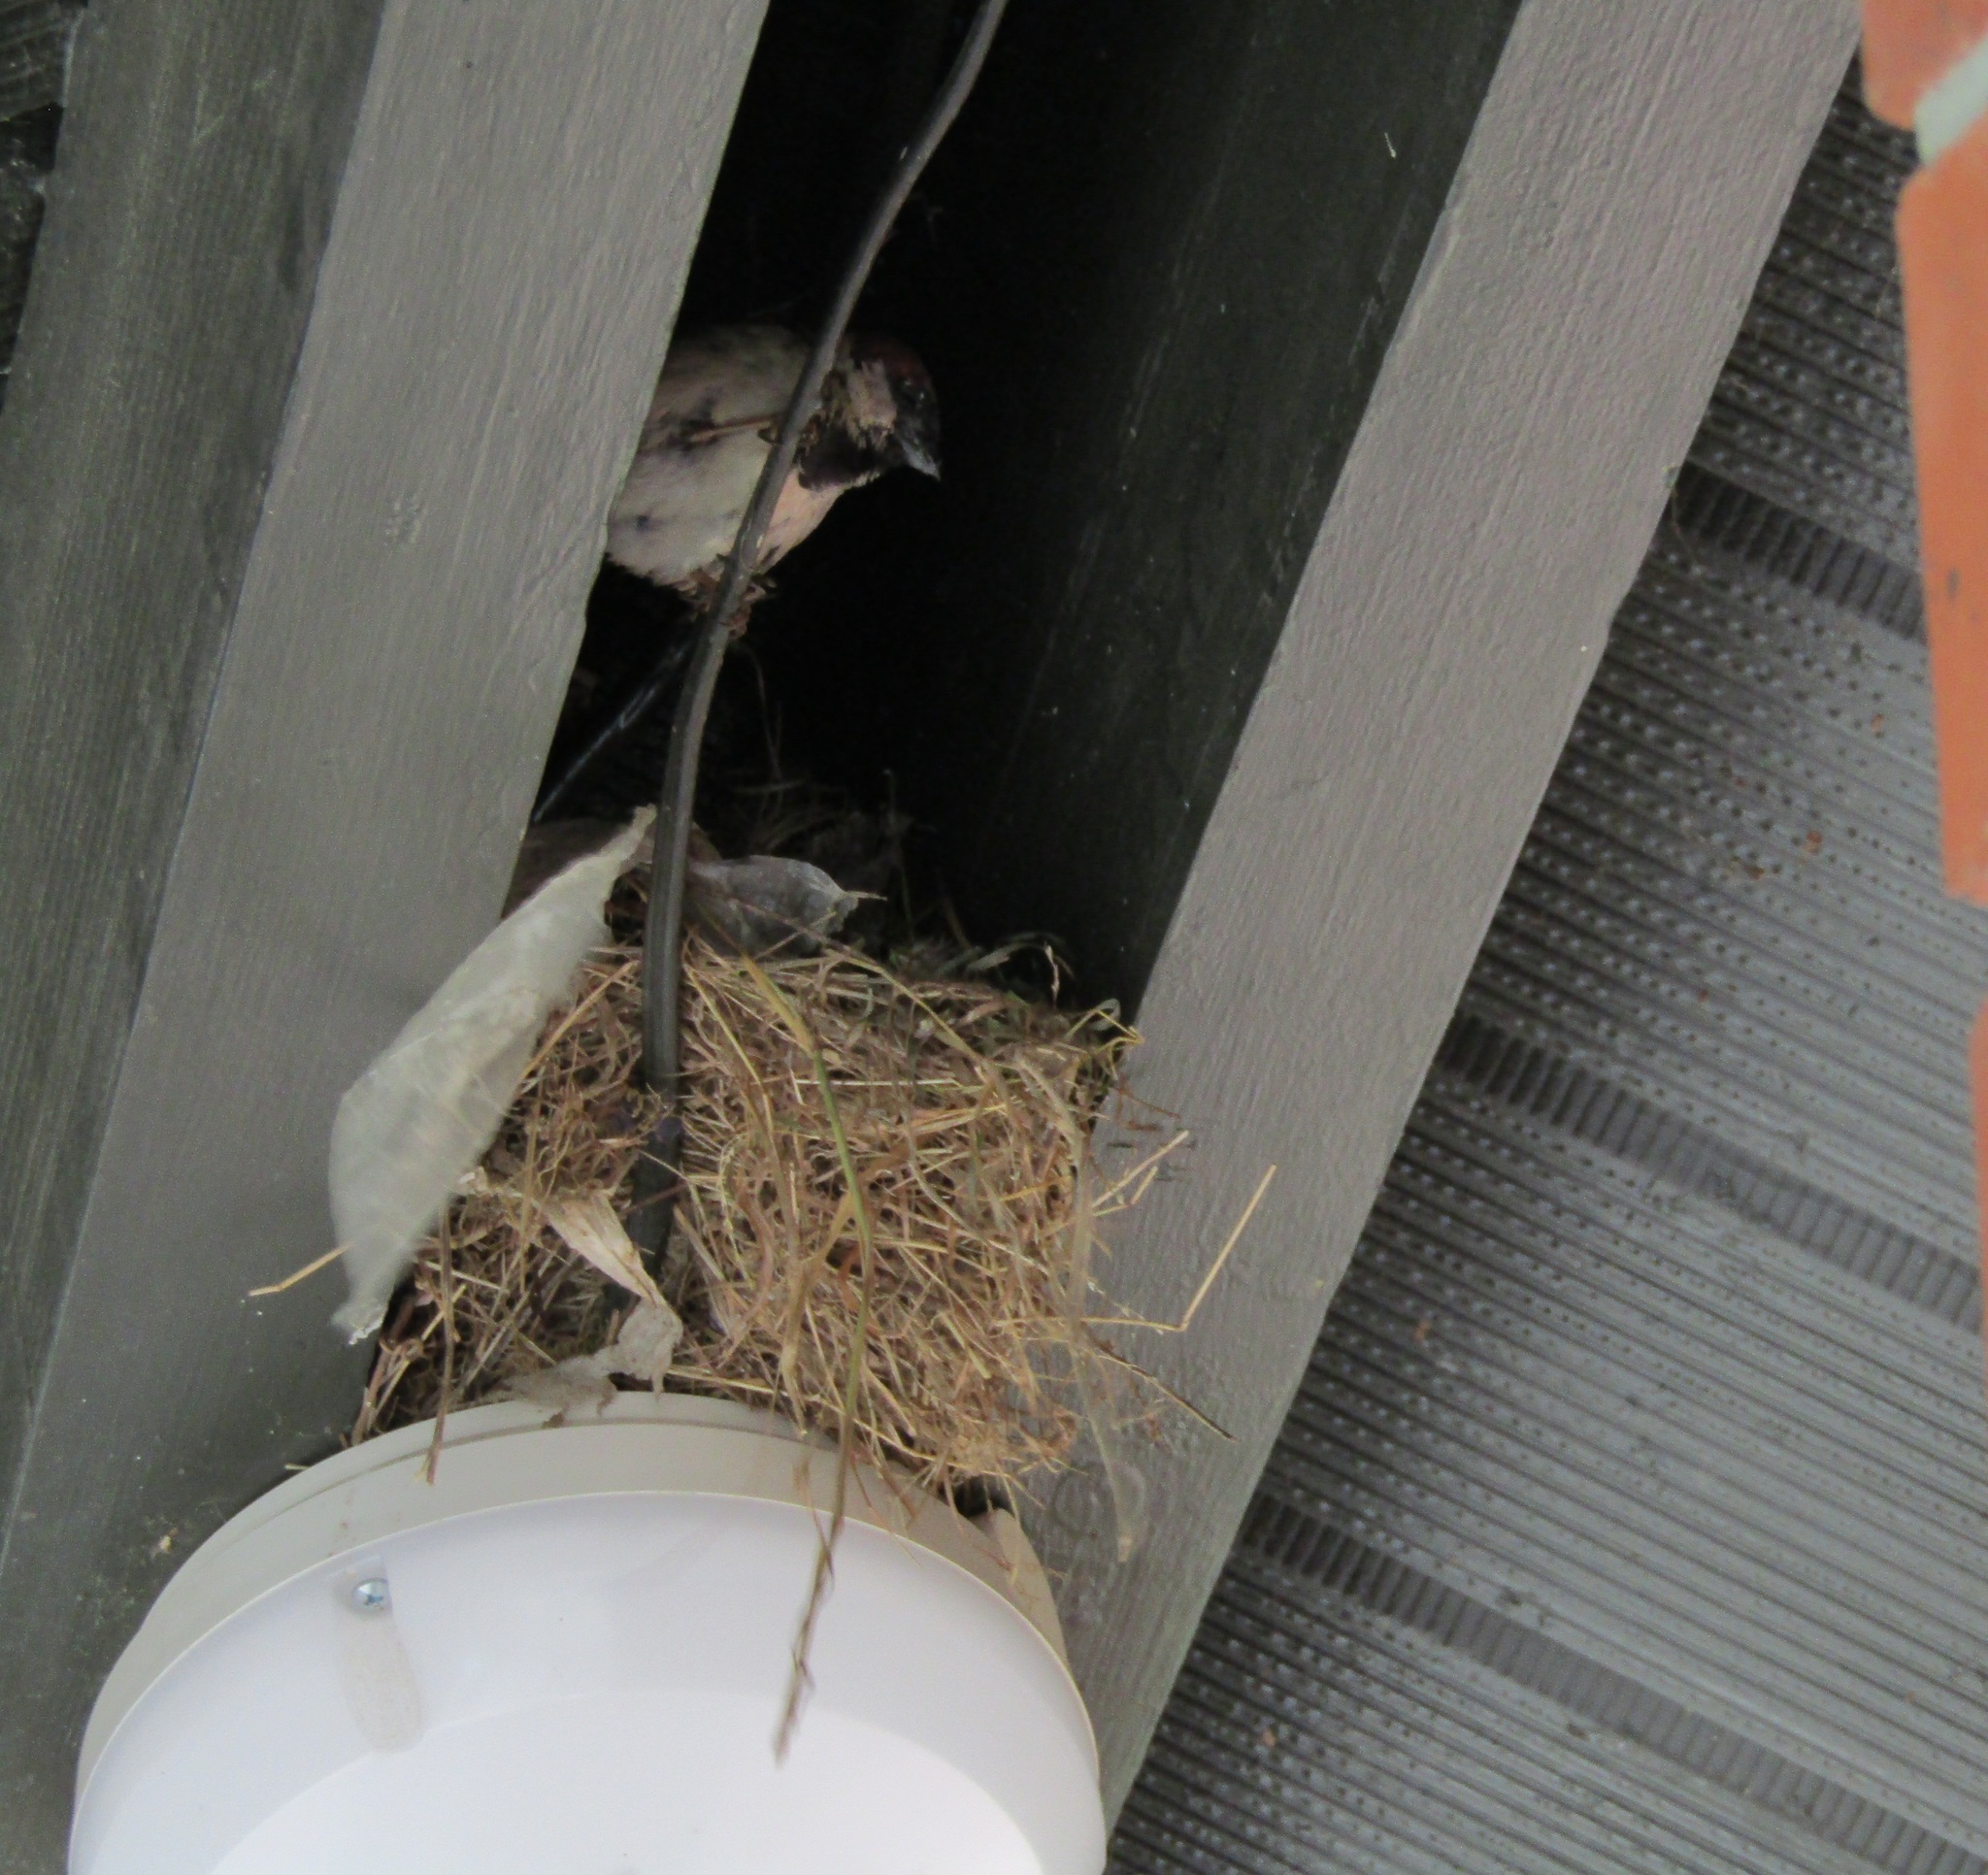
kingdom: Animalia
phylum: Chordata
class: Aves
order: Passeriformes
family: Passeridae
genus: Passer
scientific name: Passer domesticus
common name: House sparrow
